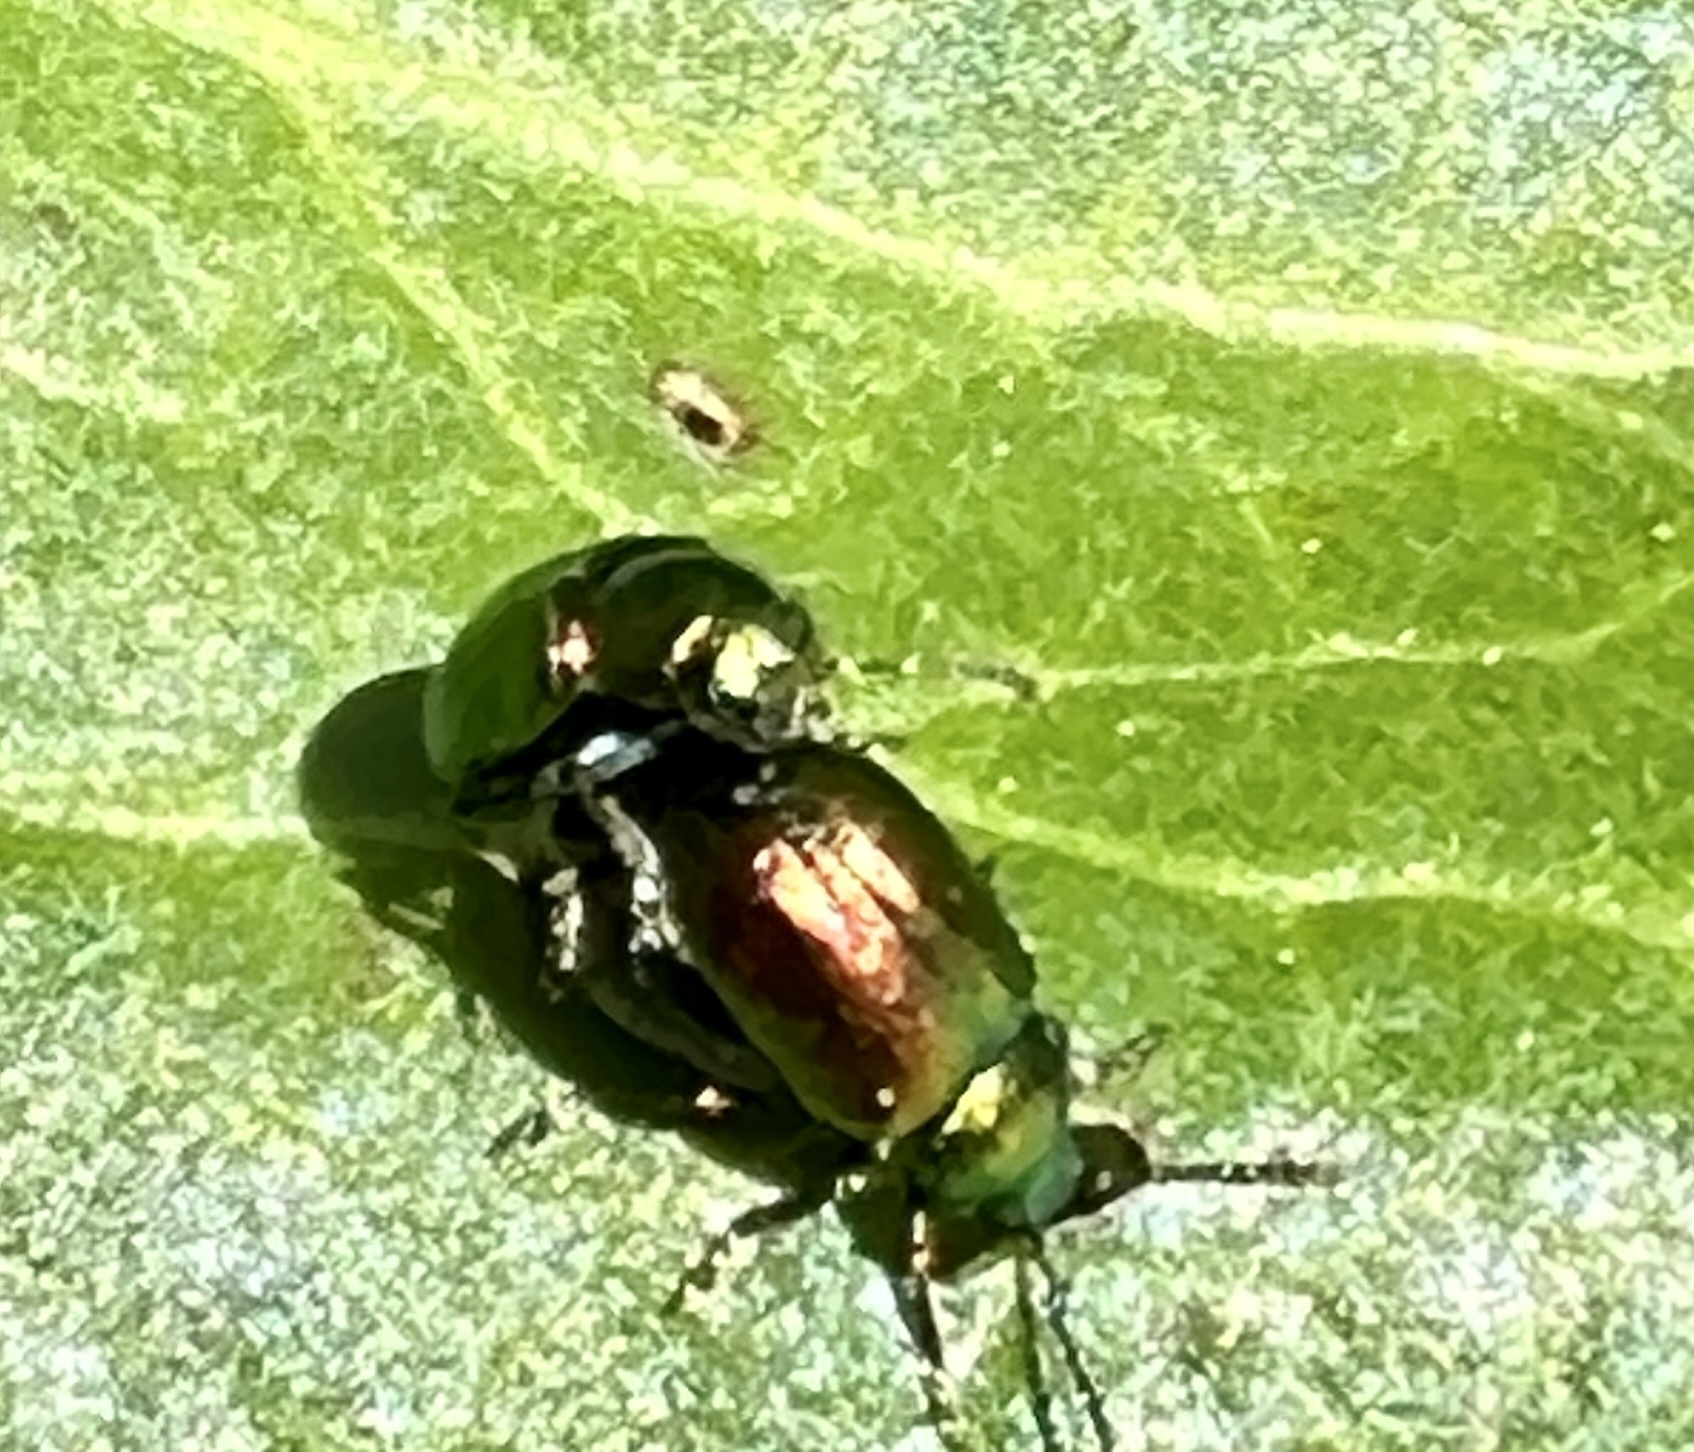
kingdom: Animalia
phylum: Arthropoda
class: Insecta
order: Coleoptera
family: Chrysomelidae
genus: Gastrophysa
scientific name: Gastrophysa viridula
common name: Green dock beetle
